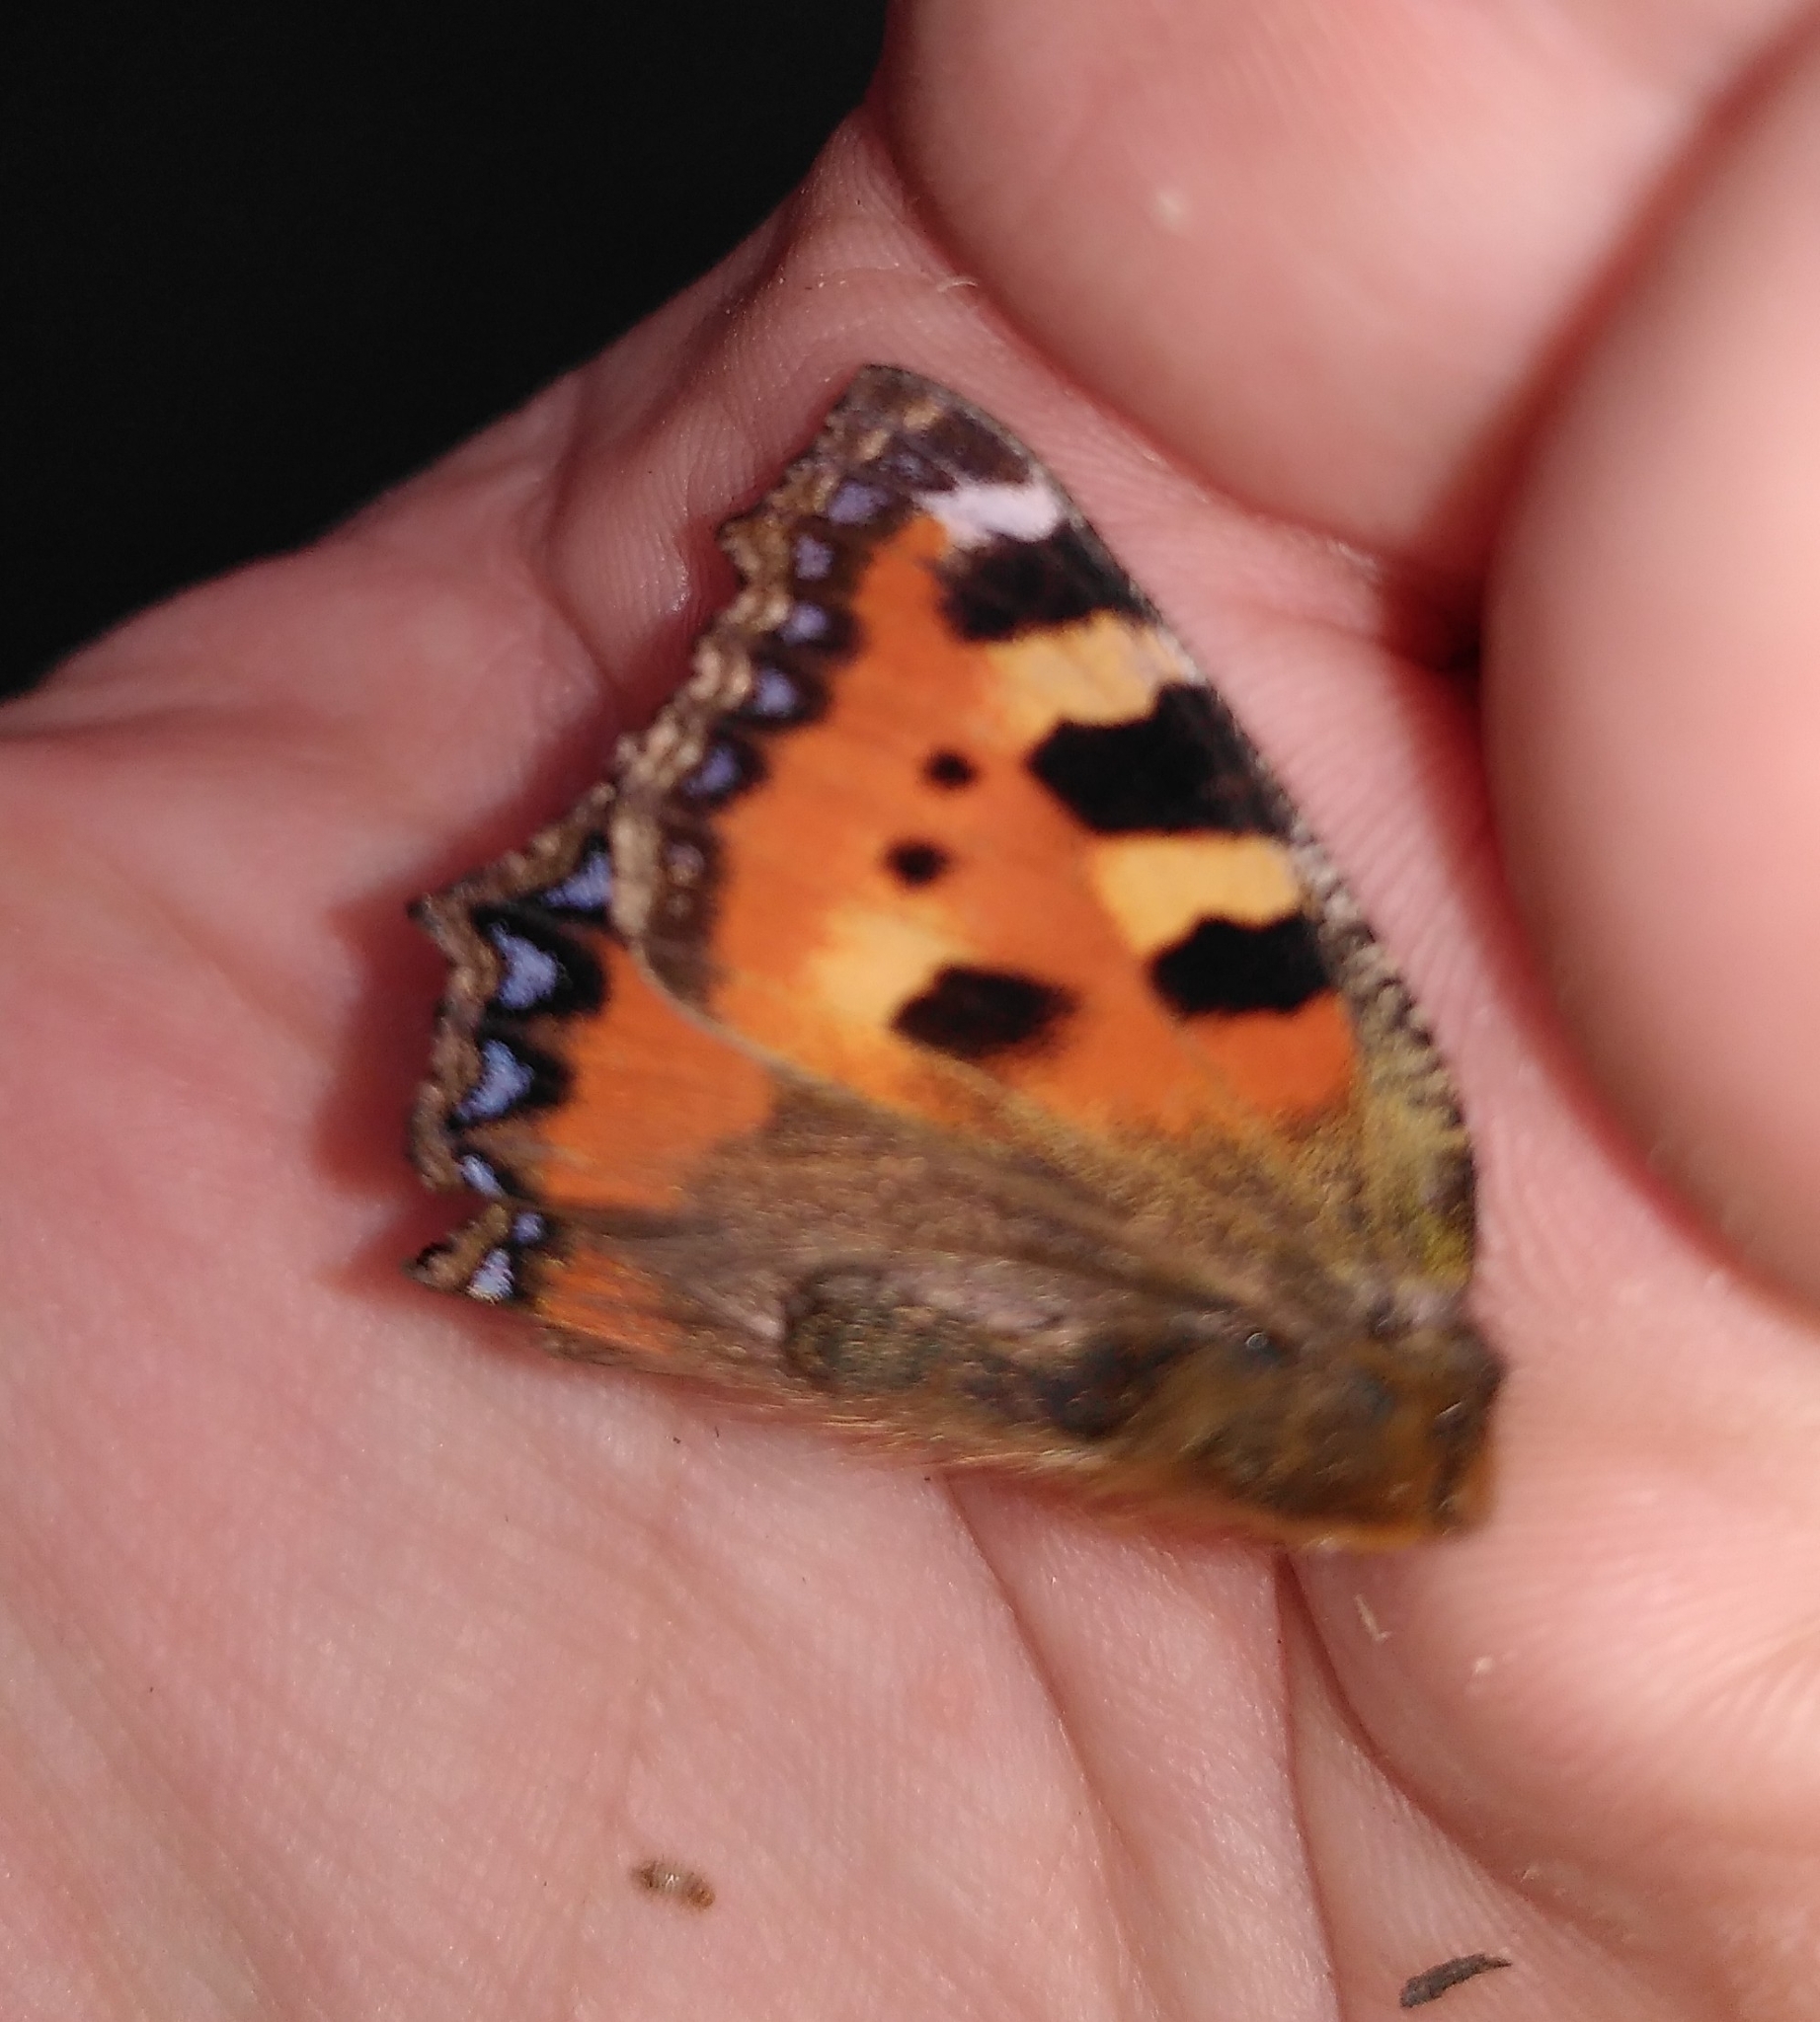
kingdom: Animalia
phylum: Arthropoda
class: Insecta
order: Lepidoptera
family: Nymphalidae
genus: Aglais
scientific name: Aglais urticae
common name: Small tortoiseshell
